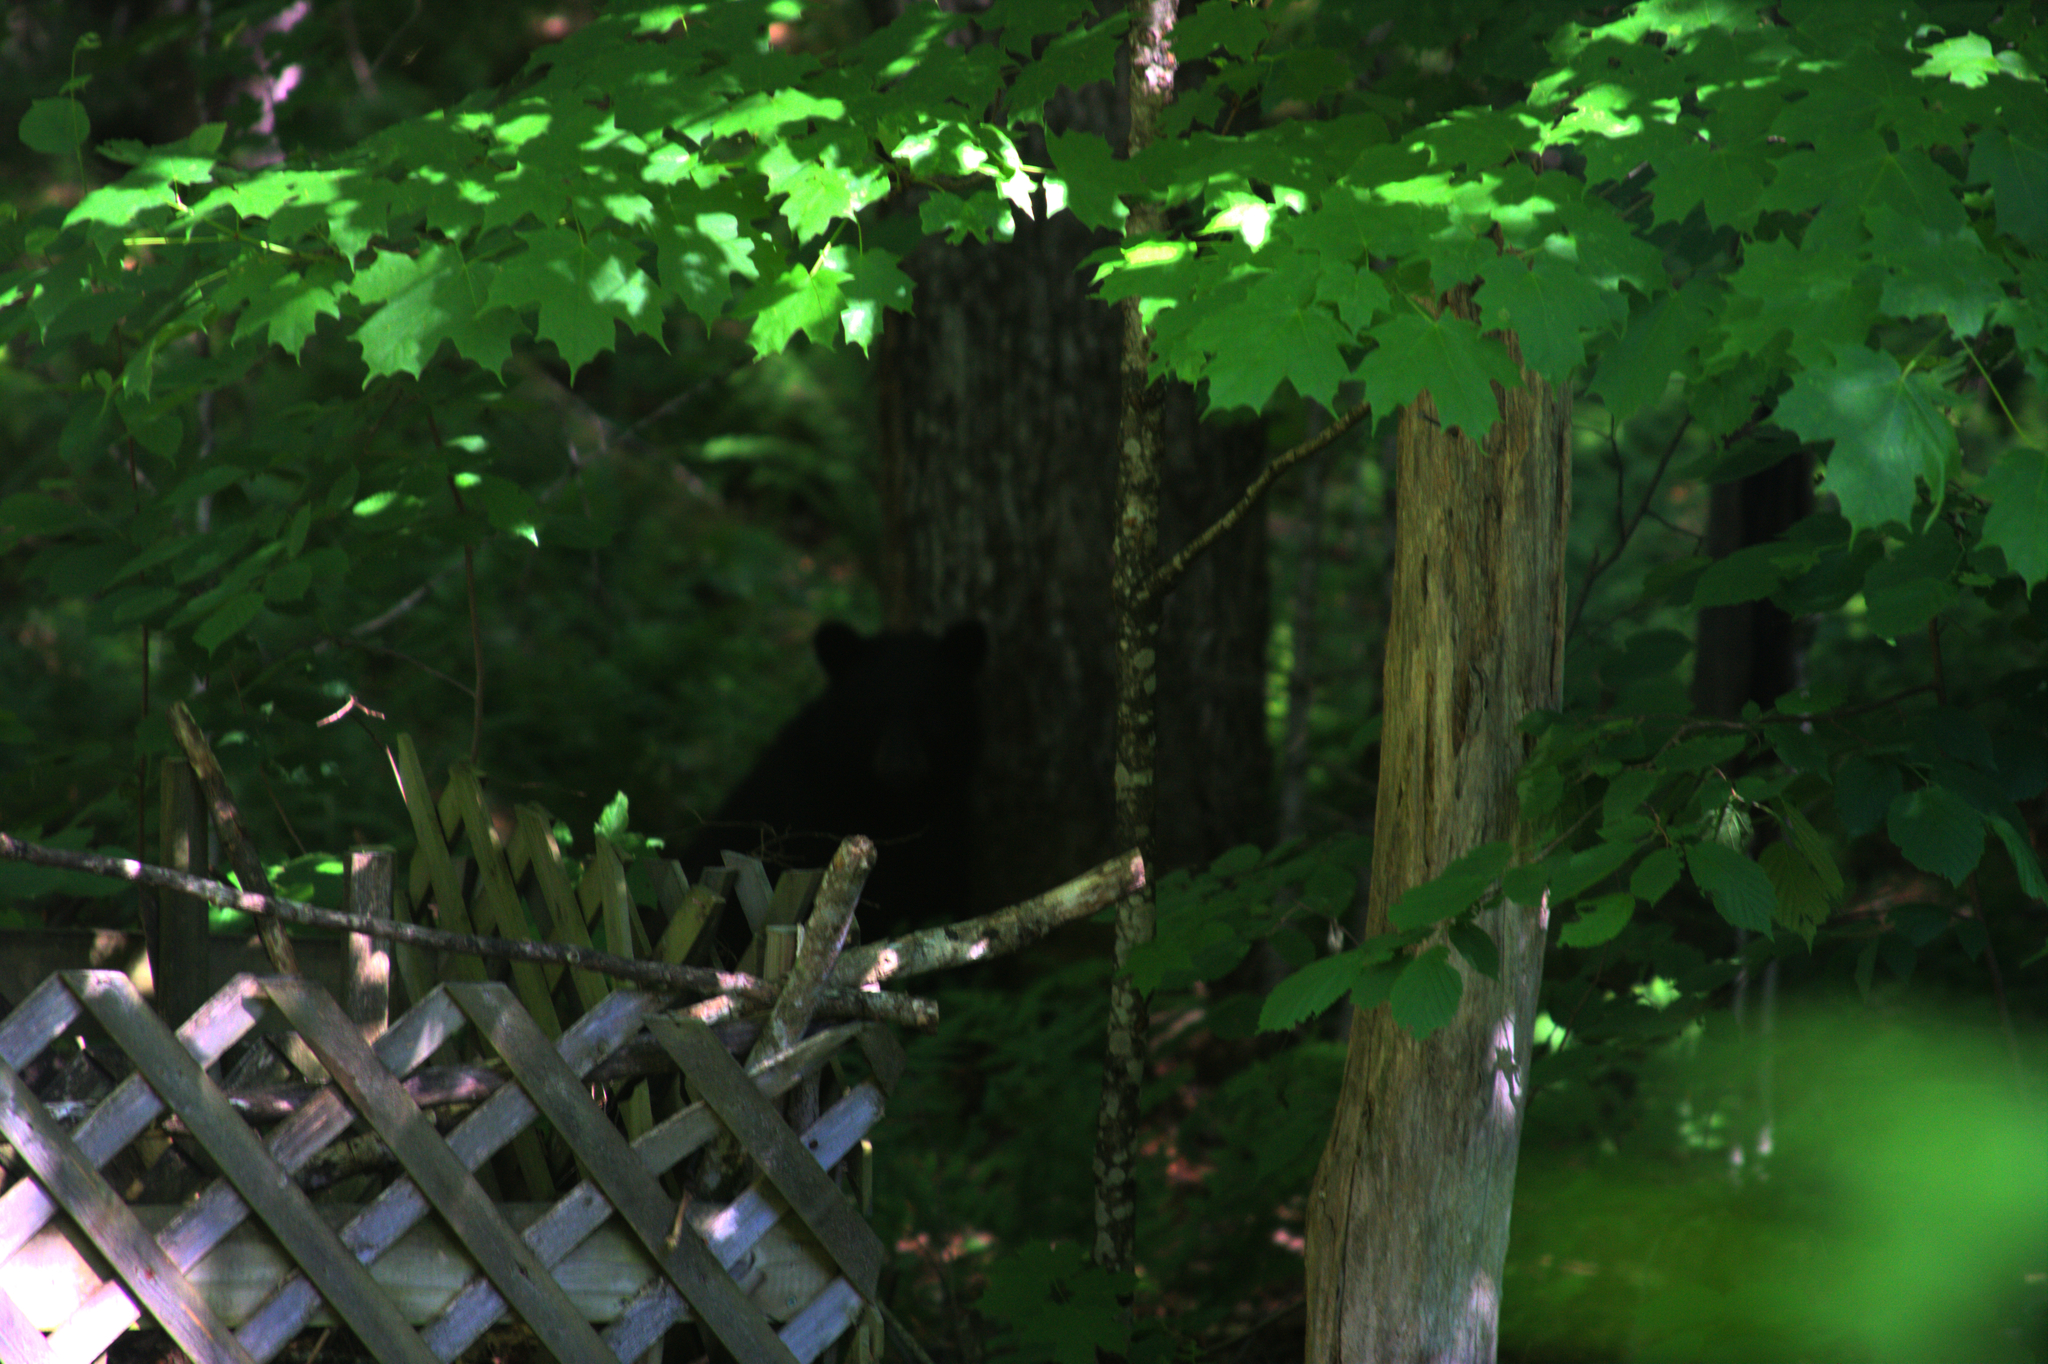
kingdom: Animalia
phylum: Chordata
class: Mammalia
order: Carnivora
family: Ursidae
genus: Ursus
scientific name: Ursus americanus
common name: American black bear
